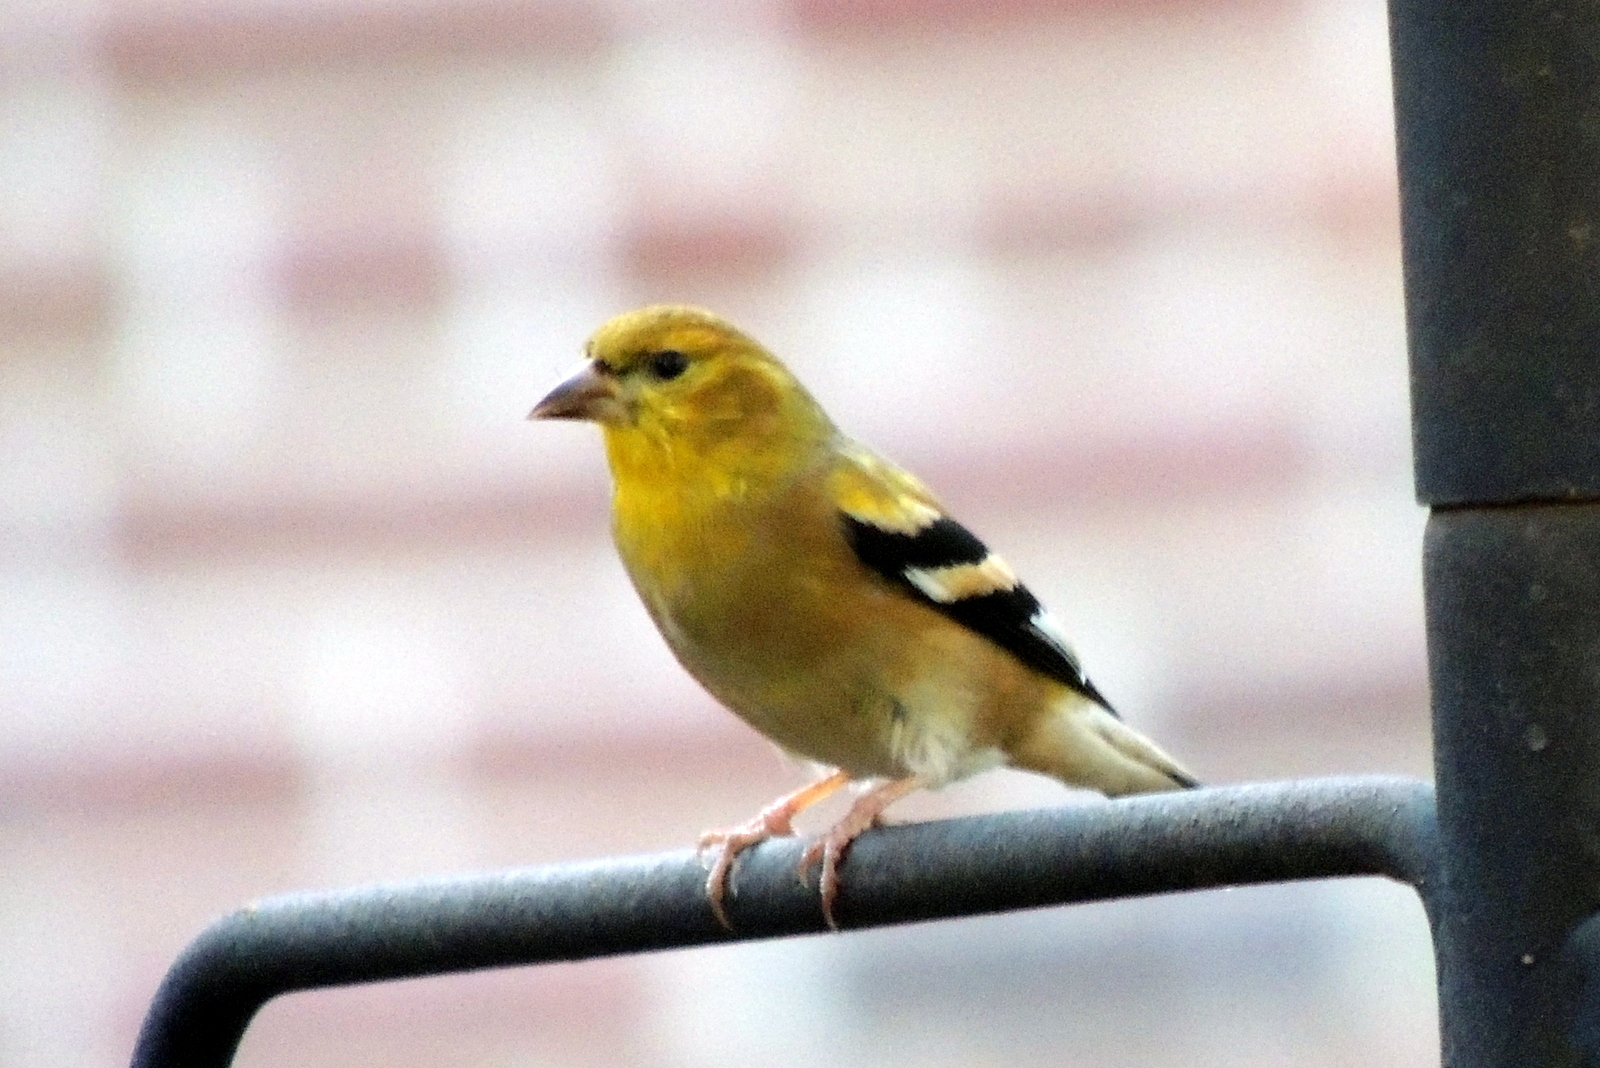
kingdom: Animalia
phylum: Chordata
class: Aves
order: Passeriformes
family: Fringillidae
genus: Spinus
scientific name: Spinus tristis
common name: American goldfinch
